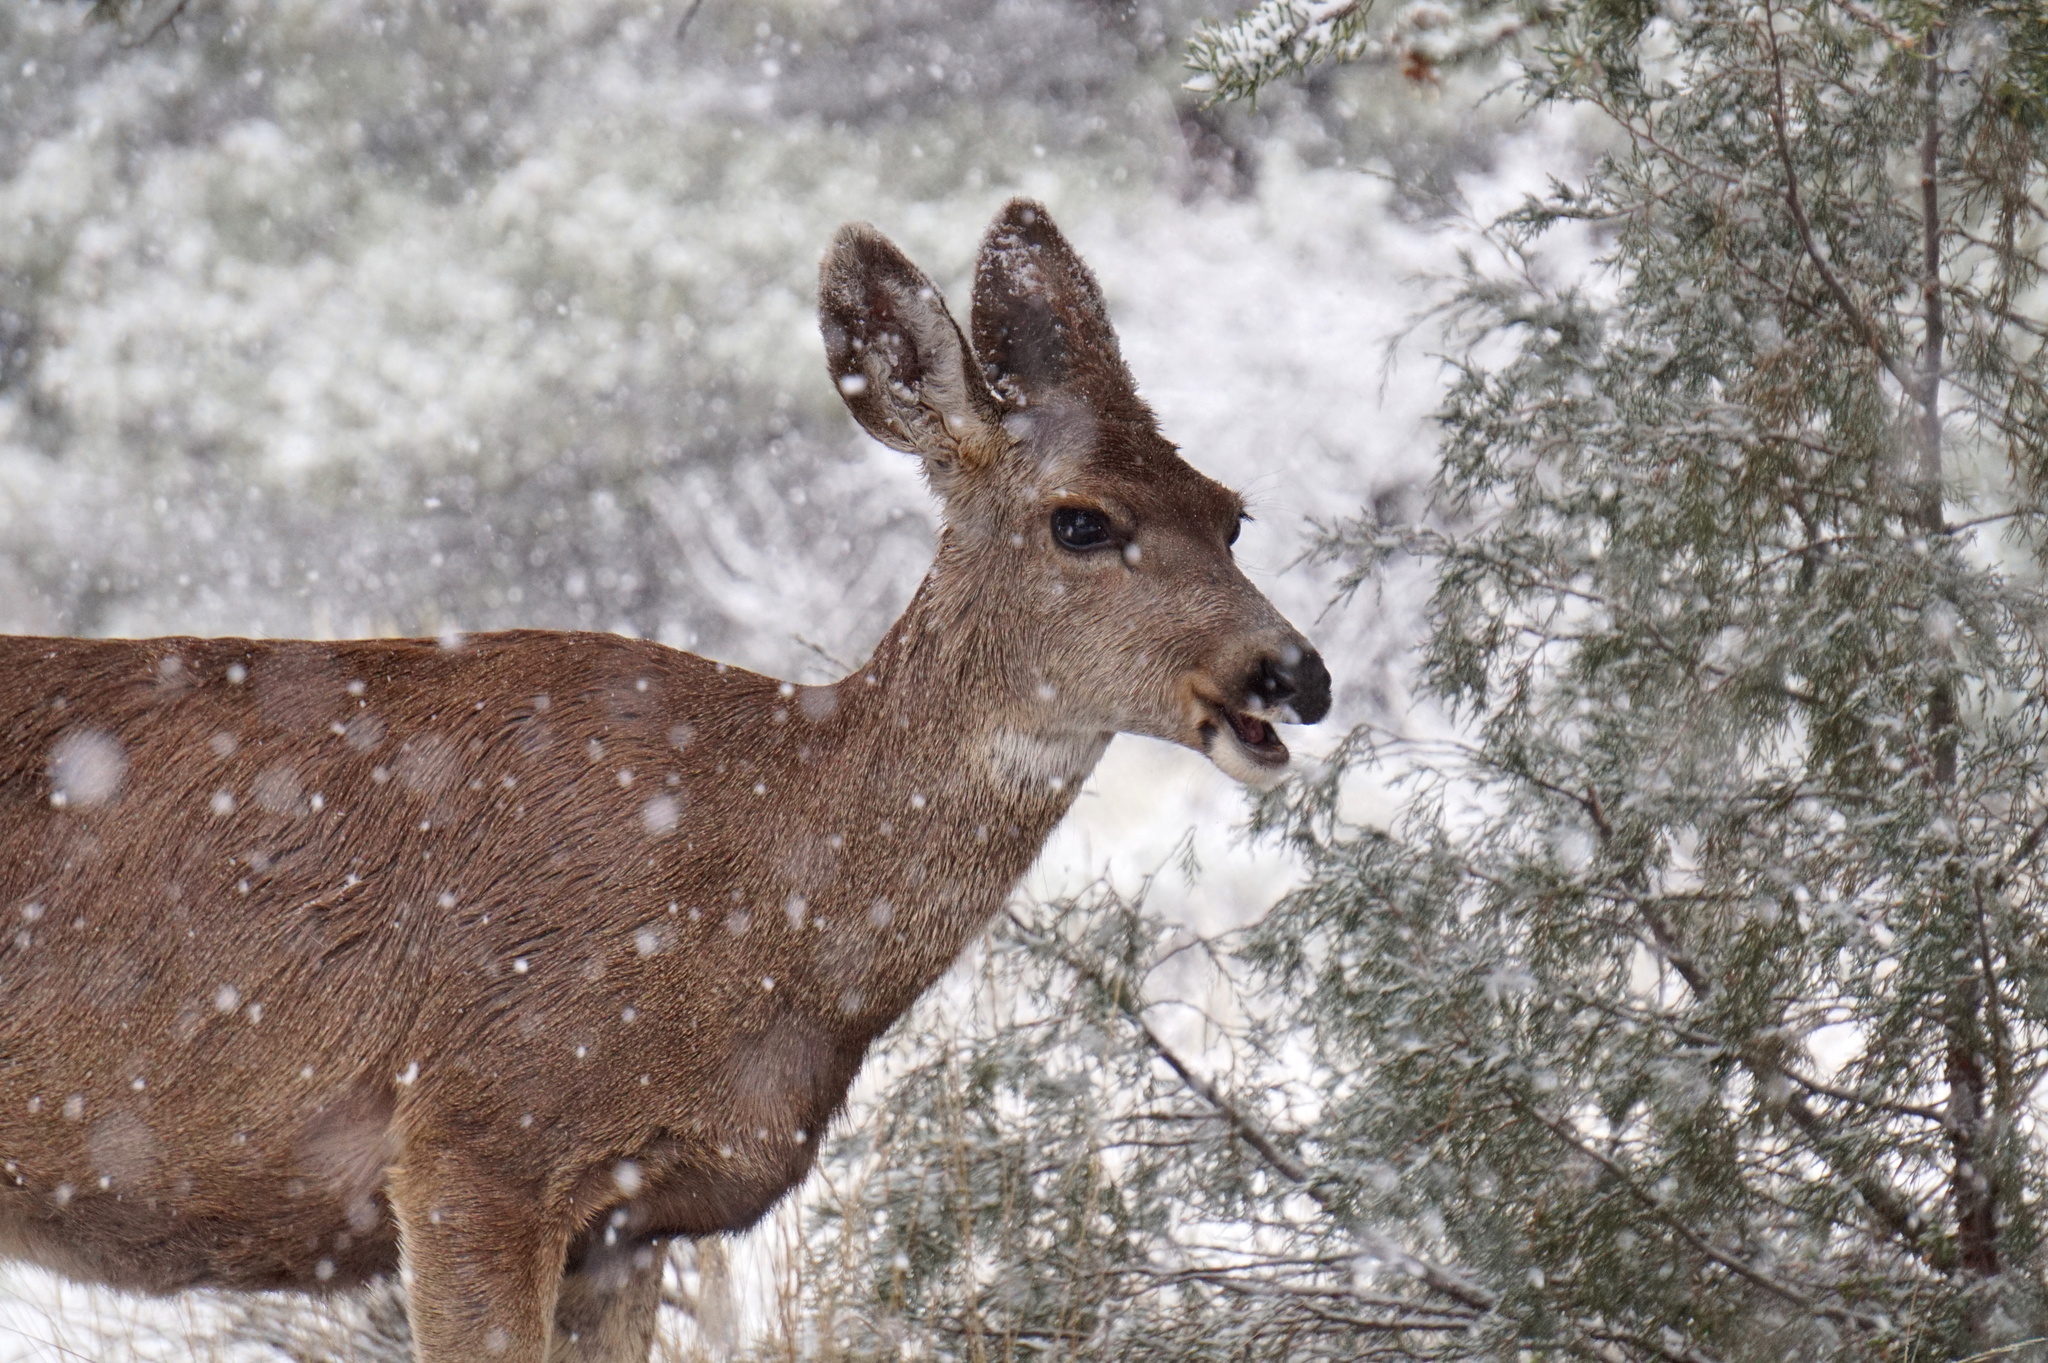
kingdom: Animalia
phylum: Chordata
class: Mammalia
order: Artiodactyla
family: Cervidae
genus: Odocoileus
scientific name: Odocoileus hemionus
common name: Mule deer
